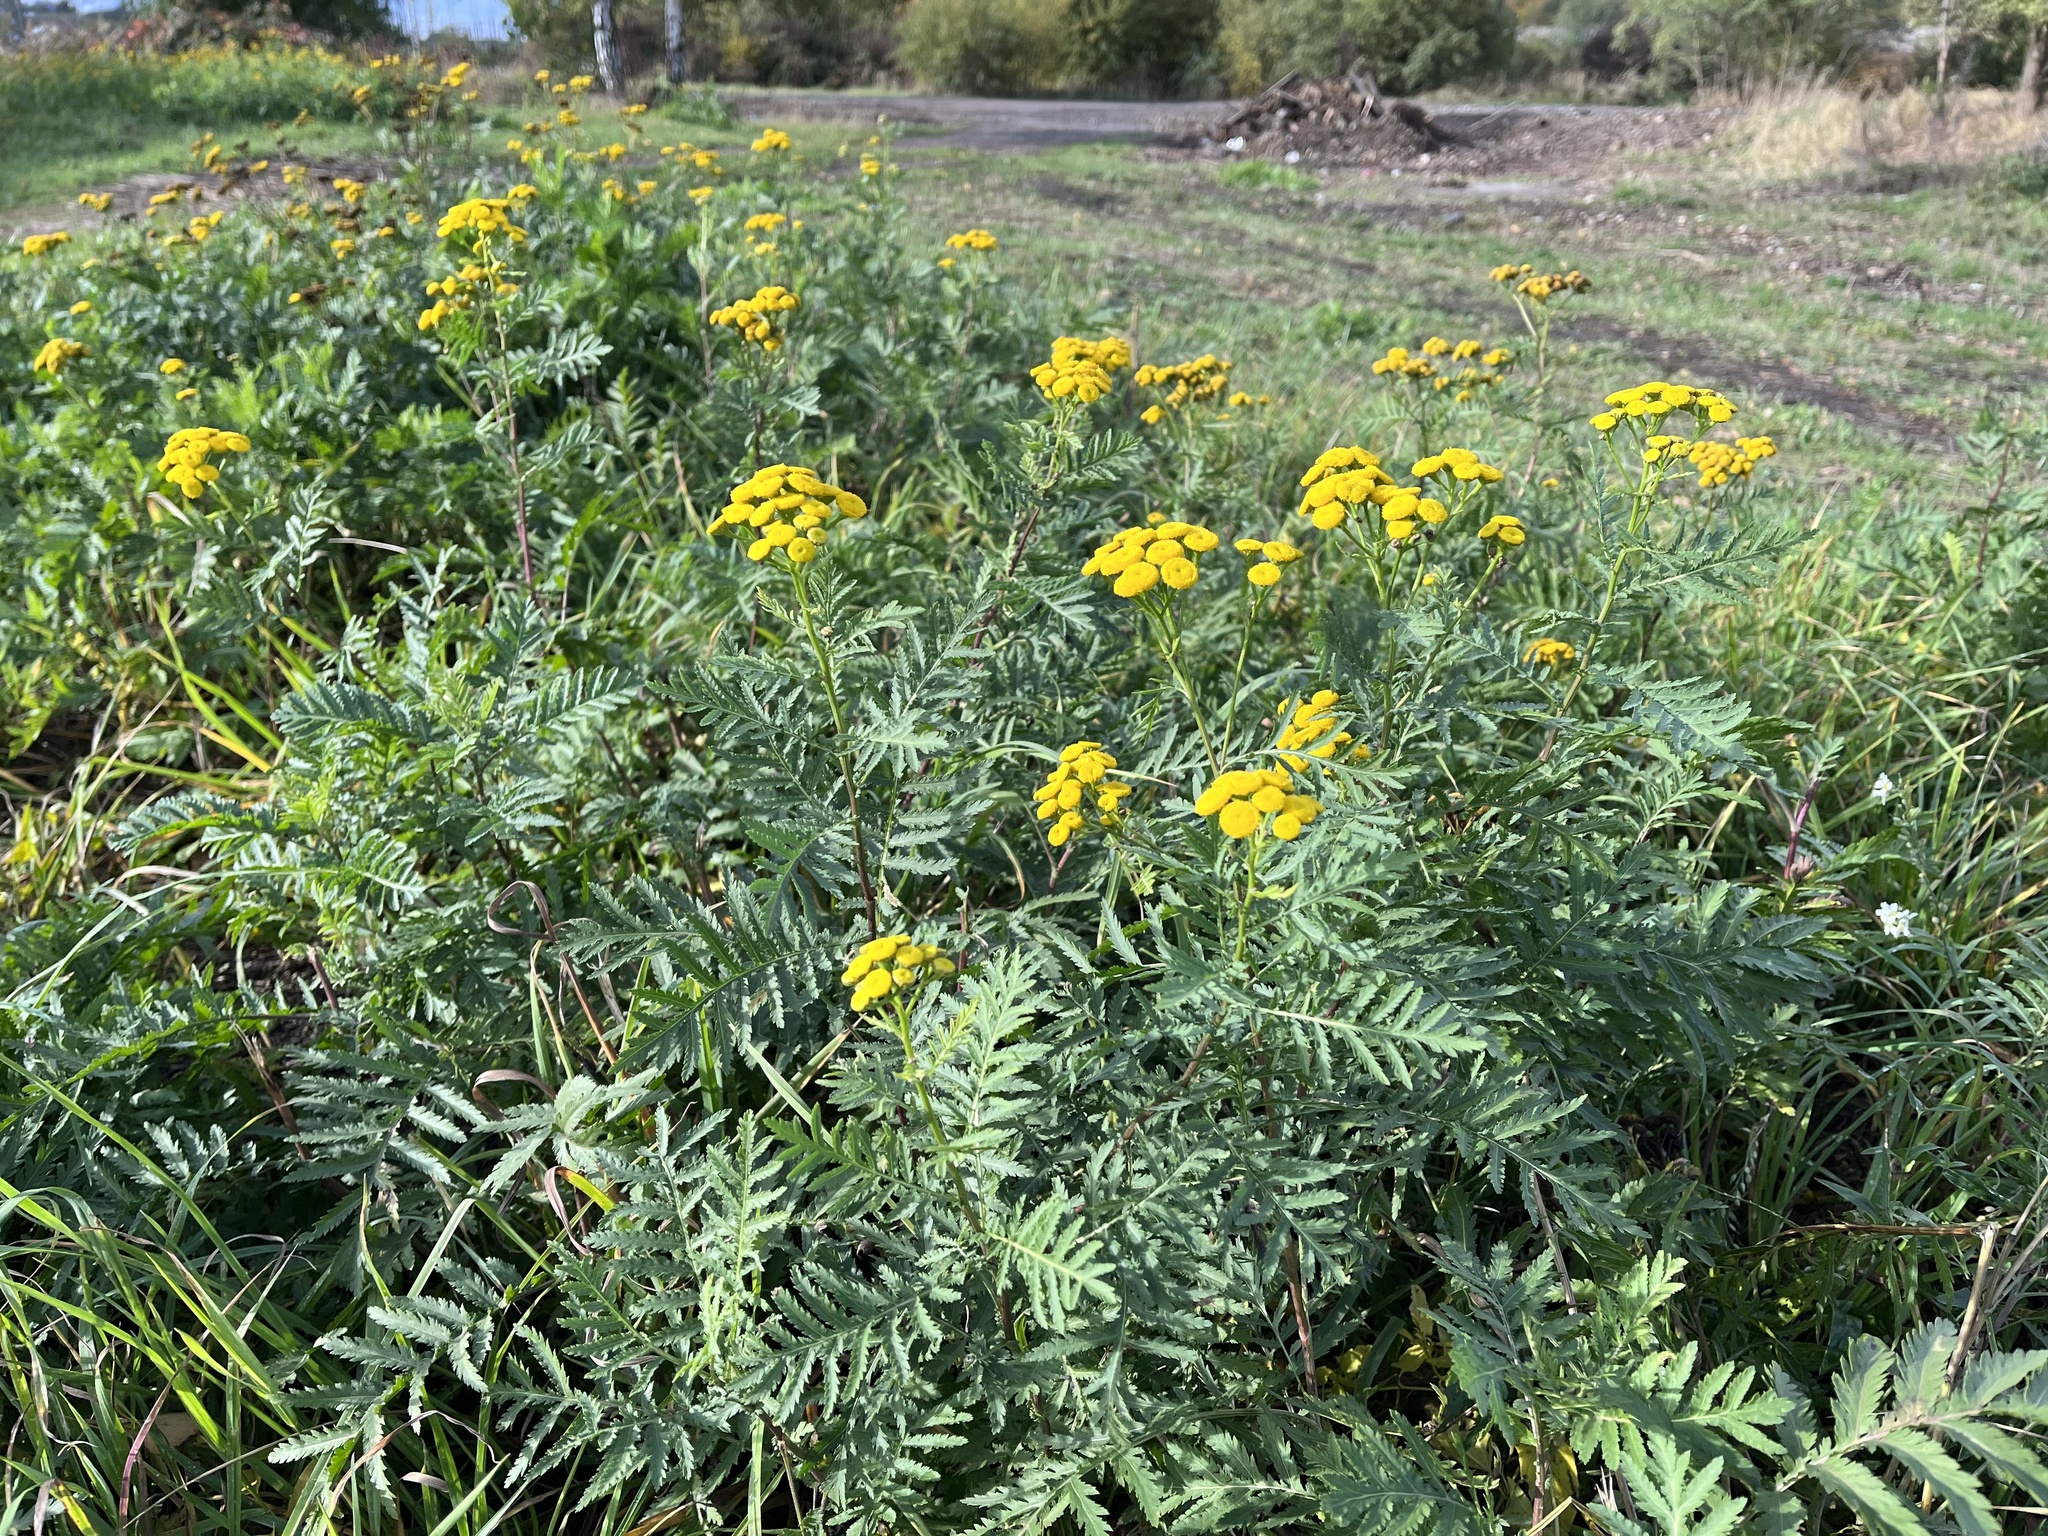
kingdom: Plantae
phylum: Tracheophyta
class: Magnoliopsida
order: Asterales
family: Asteraceae
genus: Tanacetum
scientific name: Tanacetum vulgare
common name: Common tansy
